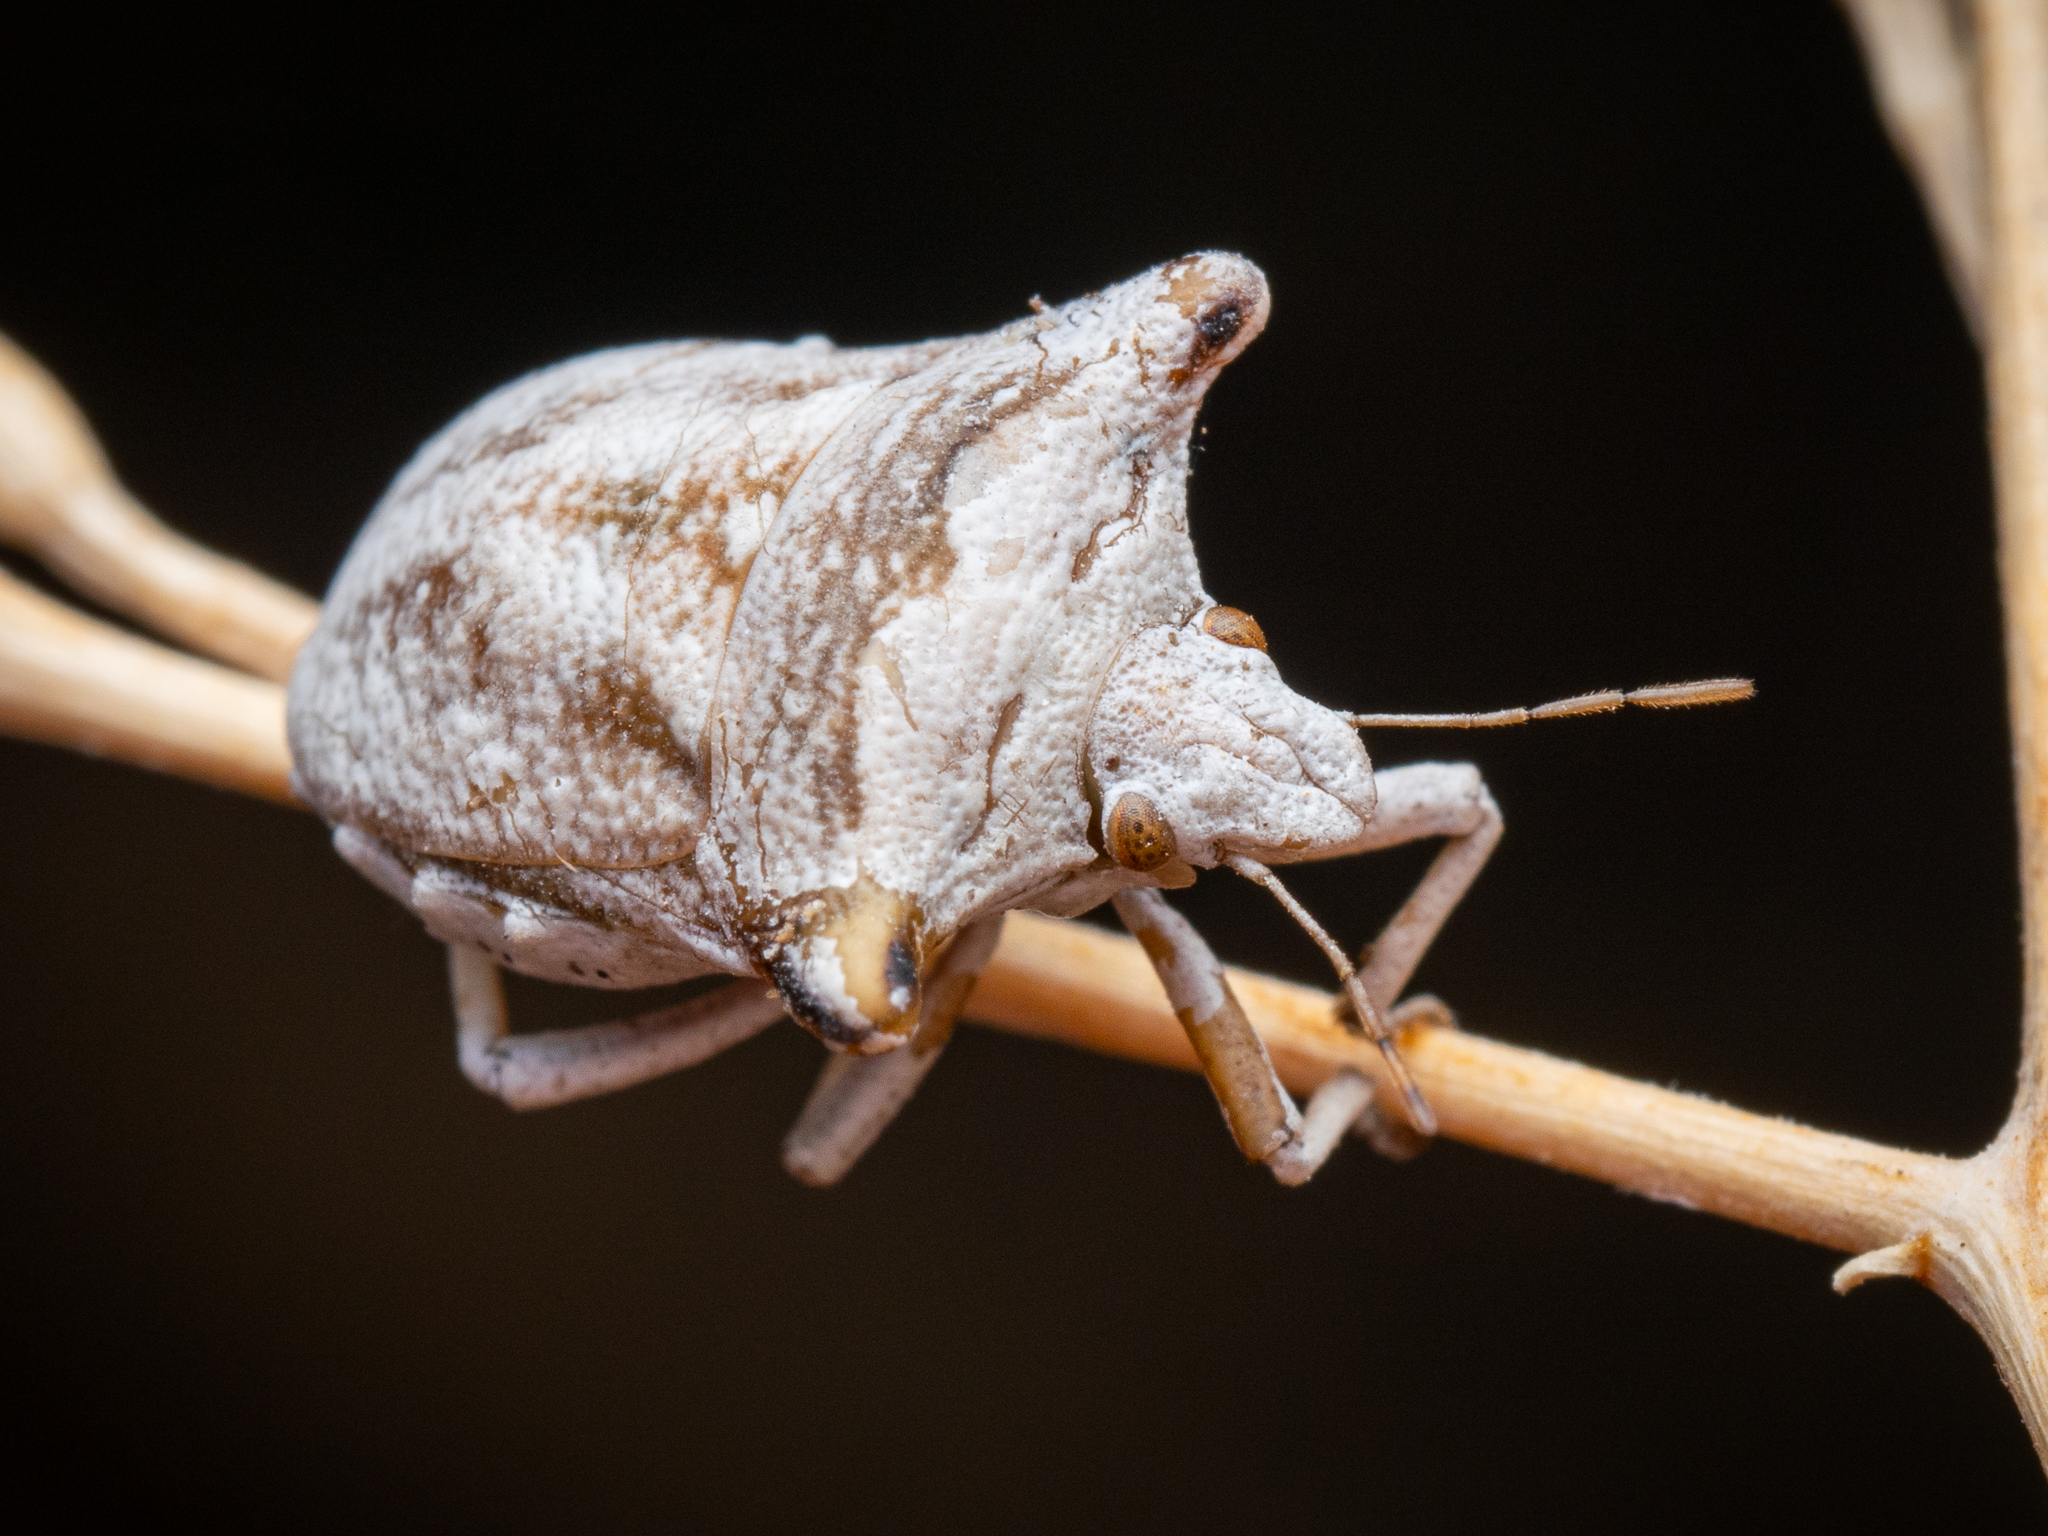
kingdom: Animalia
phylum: Arthropoda
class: Insecta
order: Hemiptera
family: Pentatomidae
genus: Ventocoris
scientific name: Ventocoris achivus
